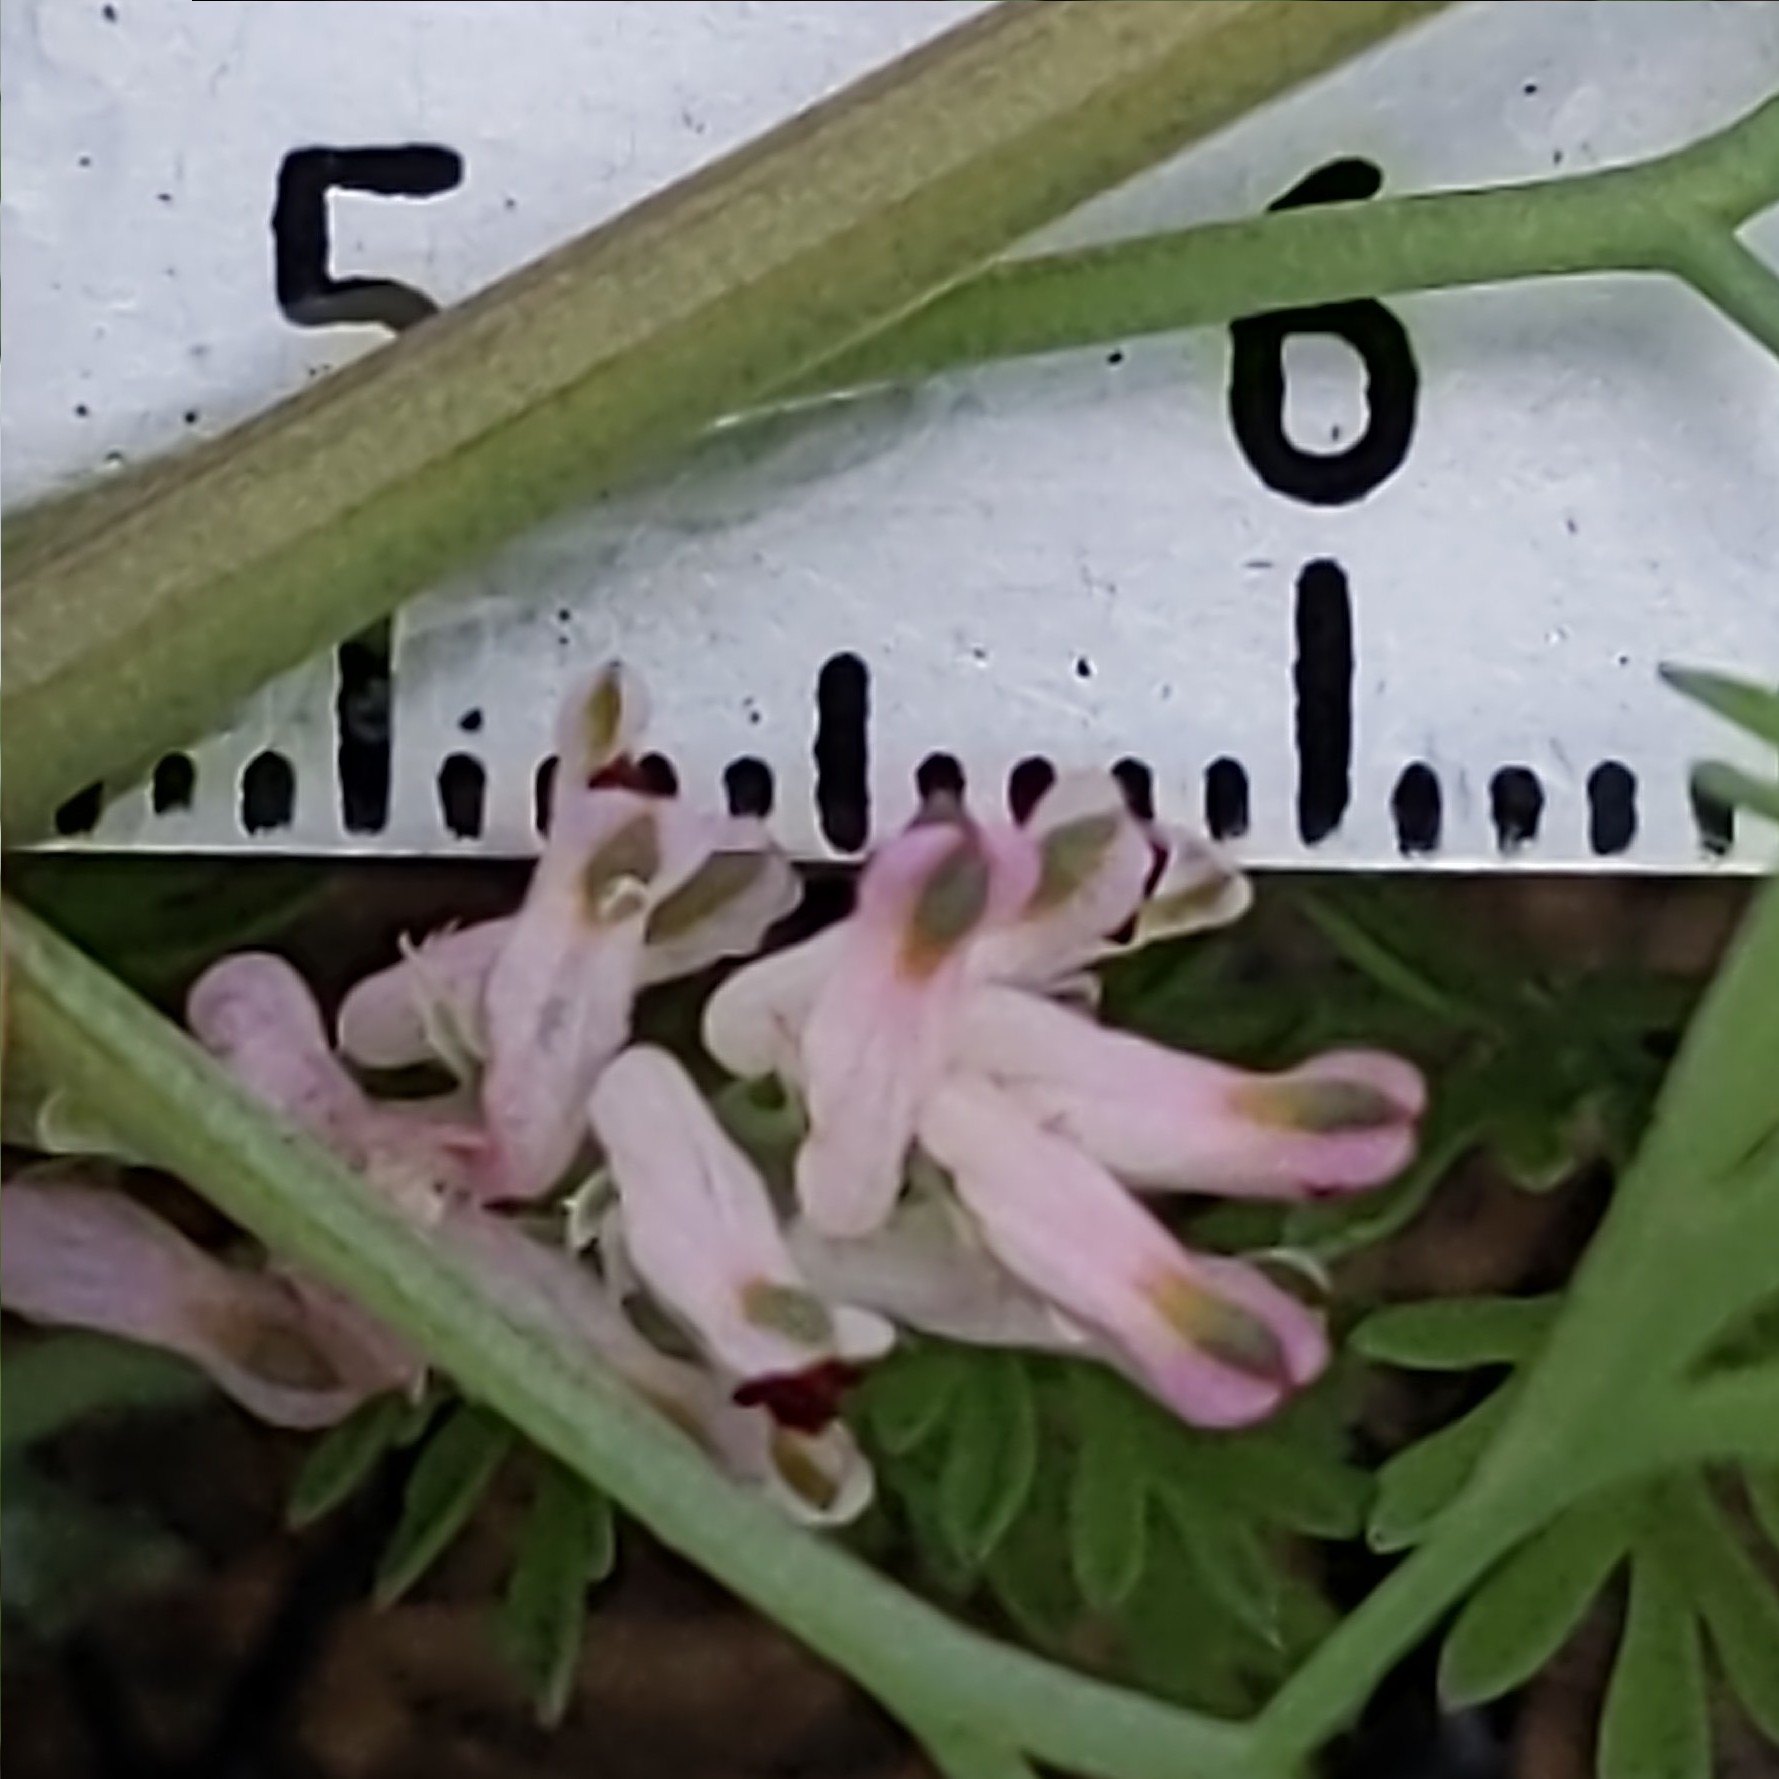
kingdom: Plantae
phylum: Tracheophyta
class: Magnoliopsida
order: Ranunculales
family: Papaveraceae
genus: Fumaria
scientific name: Fumaria parviflora
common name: Fine-leaved fumitory
